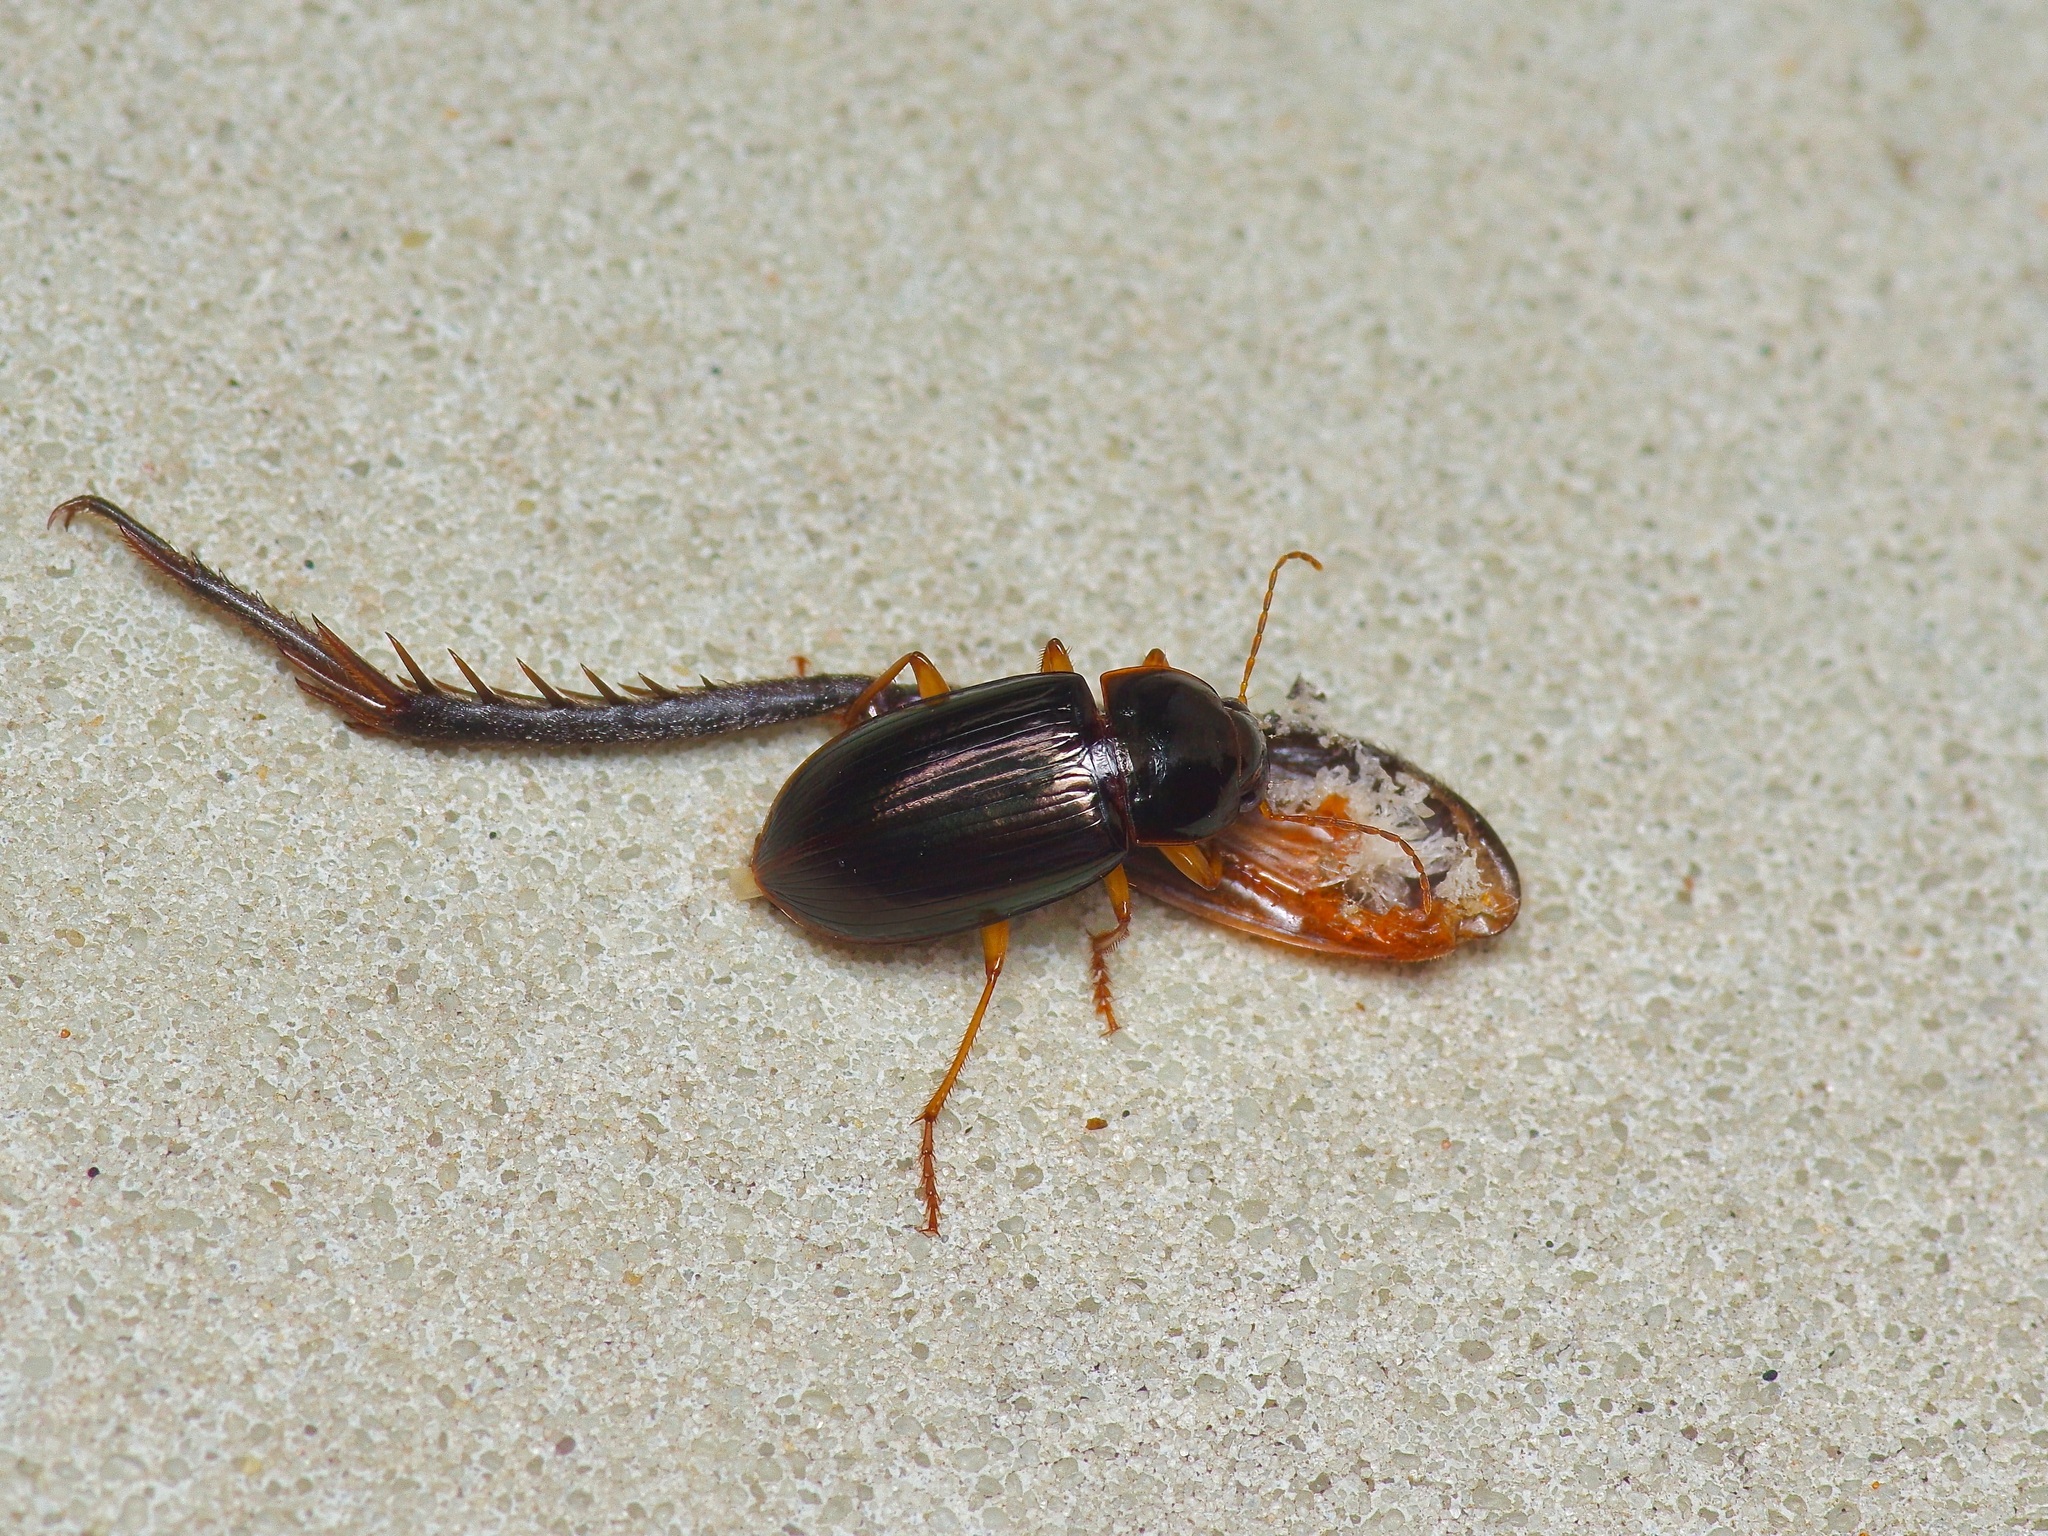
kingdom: Animalia
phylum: Arthropoda
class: Insecta
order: Coleoptera
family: Carabidae
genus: Notiobia
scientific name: Notiobia terminata
